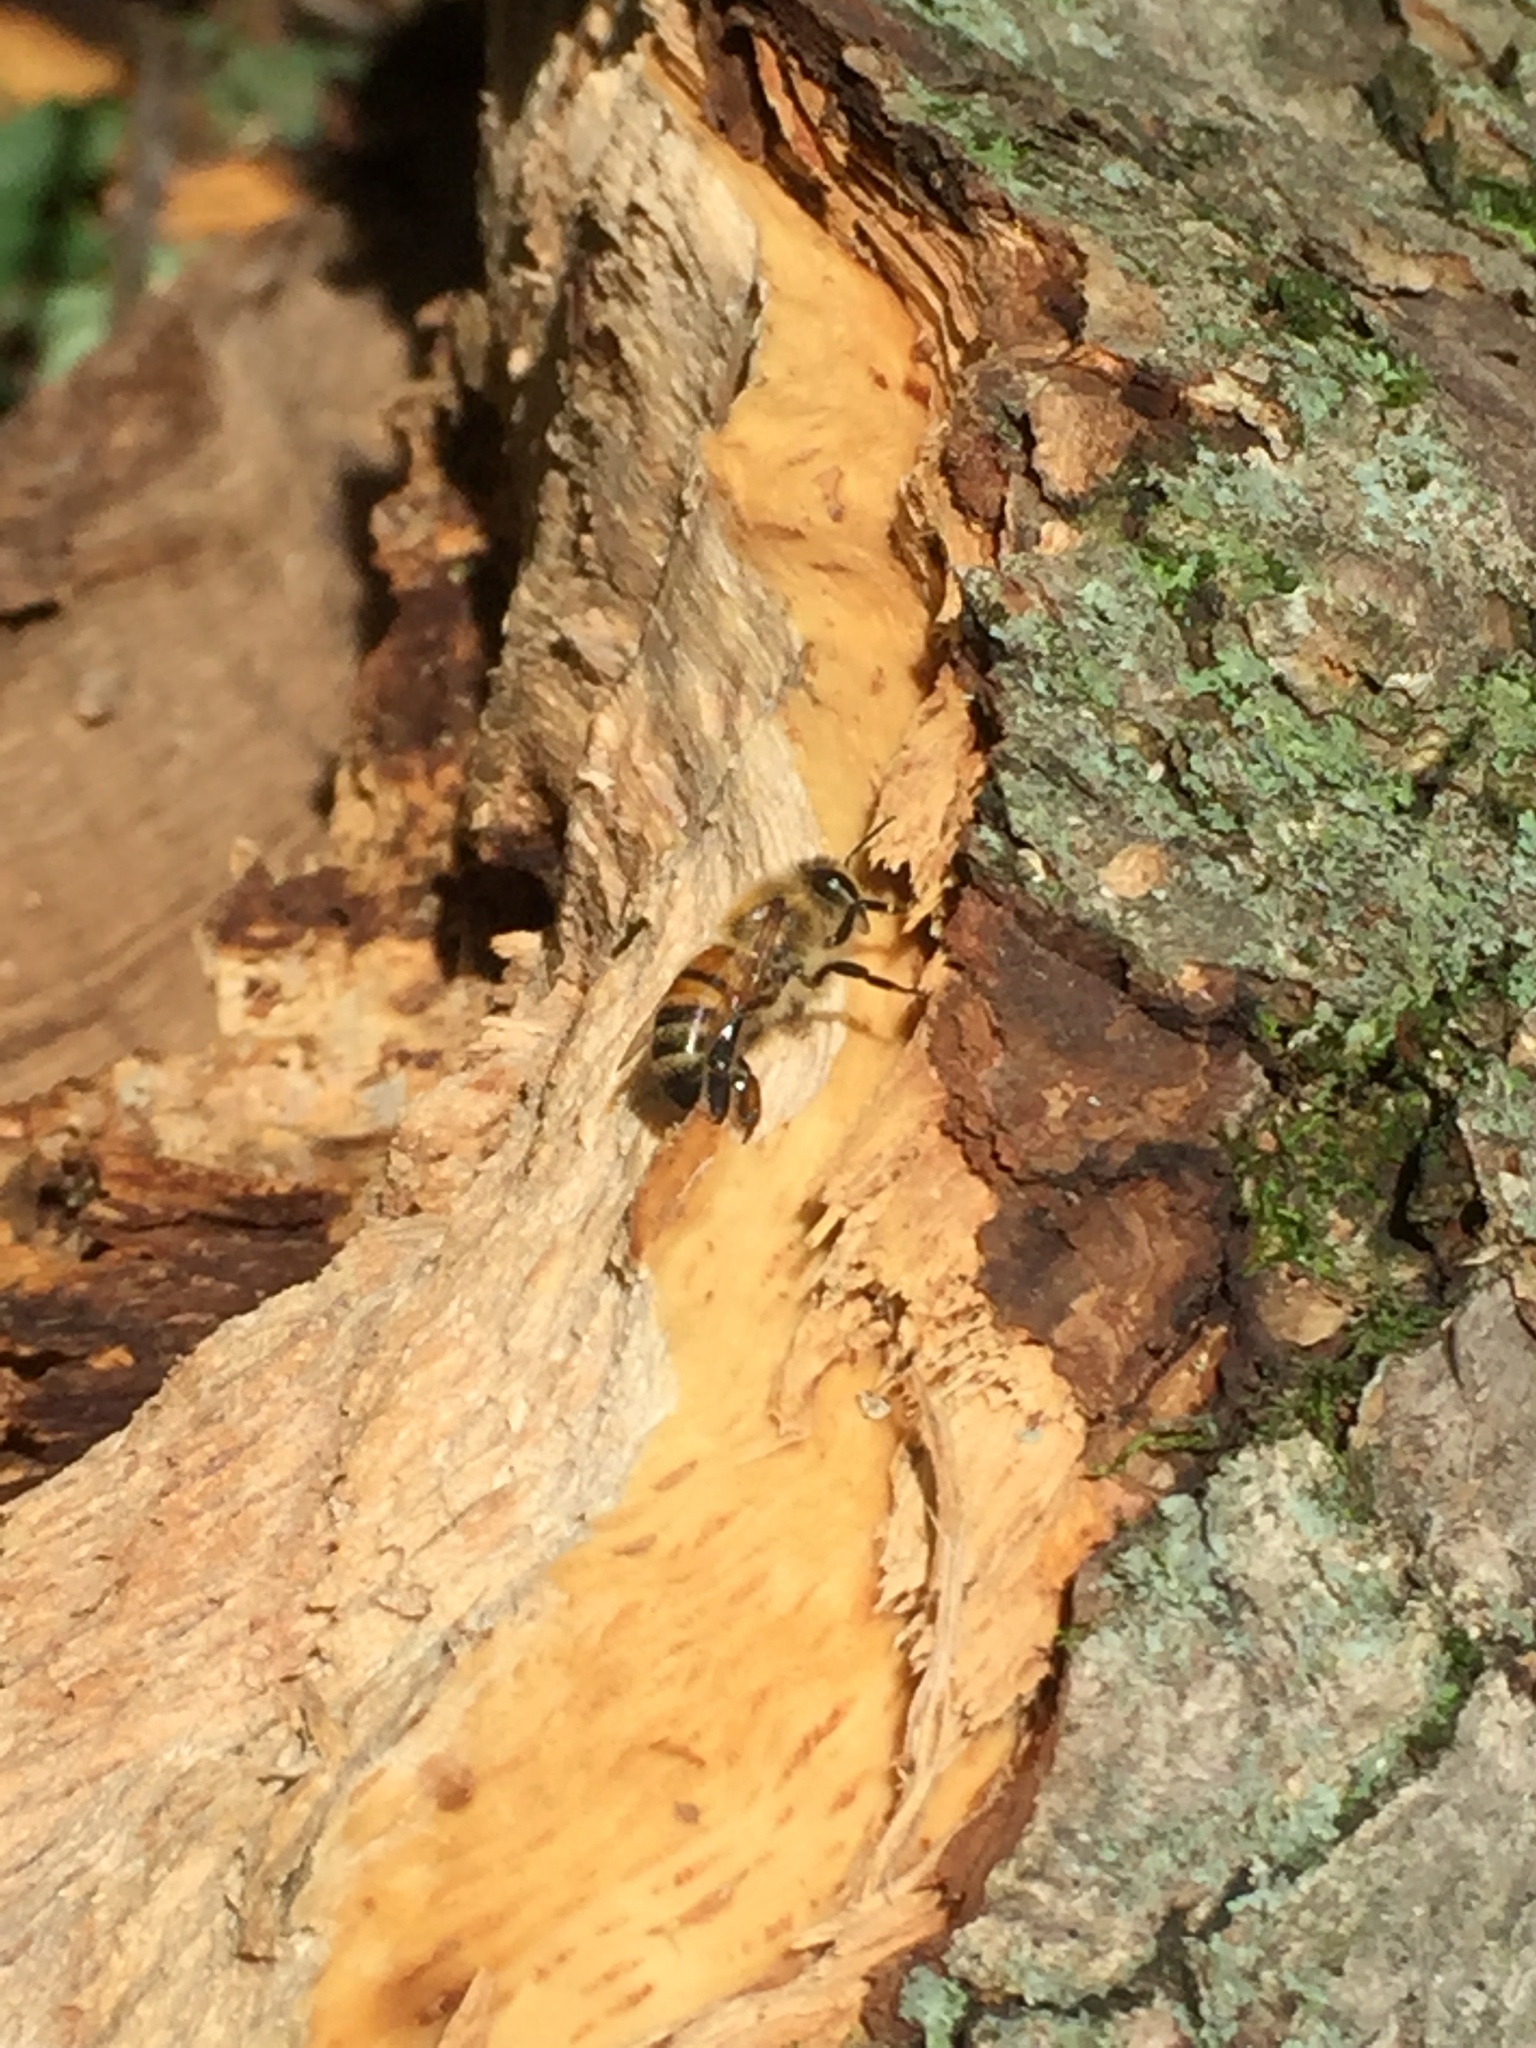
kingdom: Animalia
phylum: Arthropoda
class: Insecta
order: Hymenoptera
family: Apidae
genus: Apis
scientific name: Apis mellifera
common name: Honey bee
